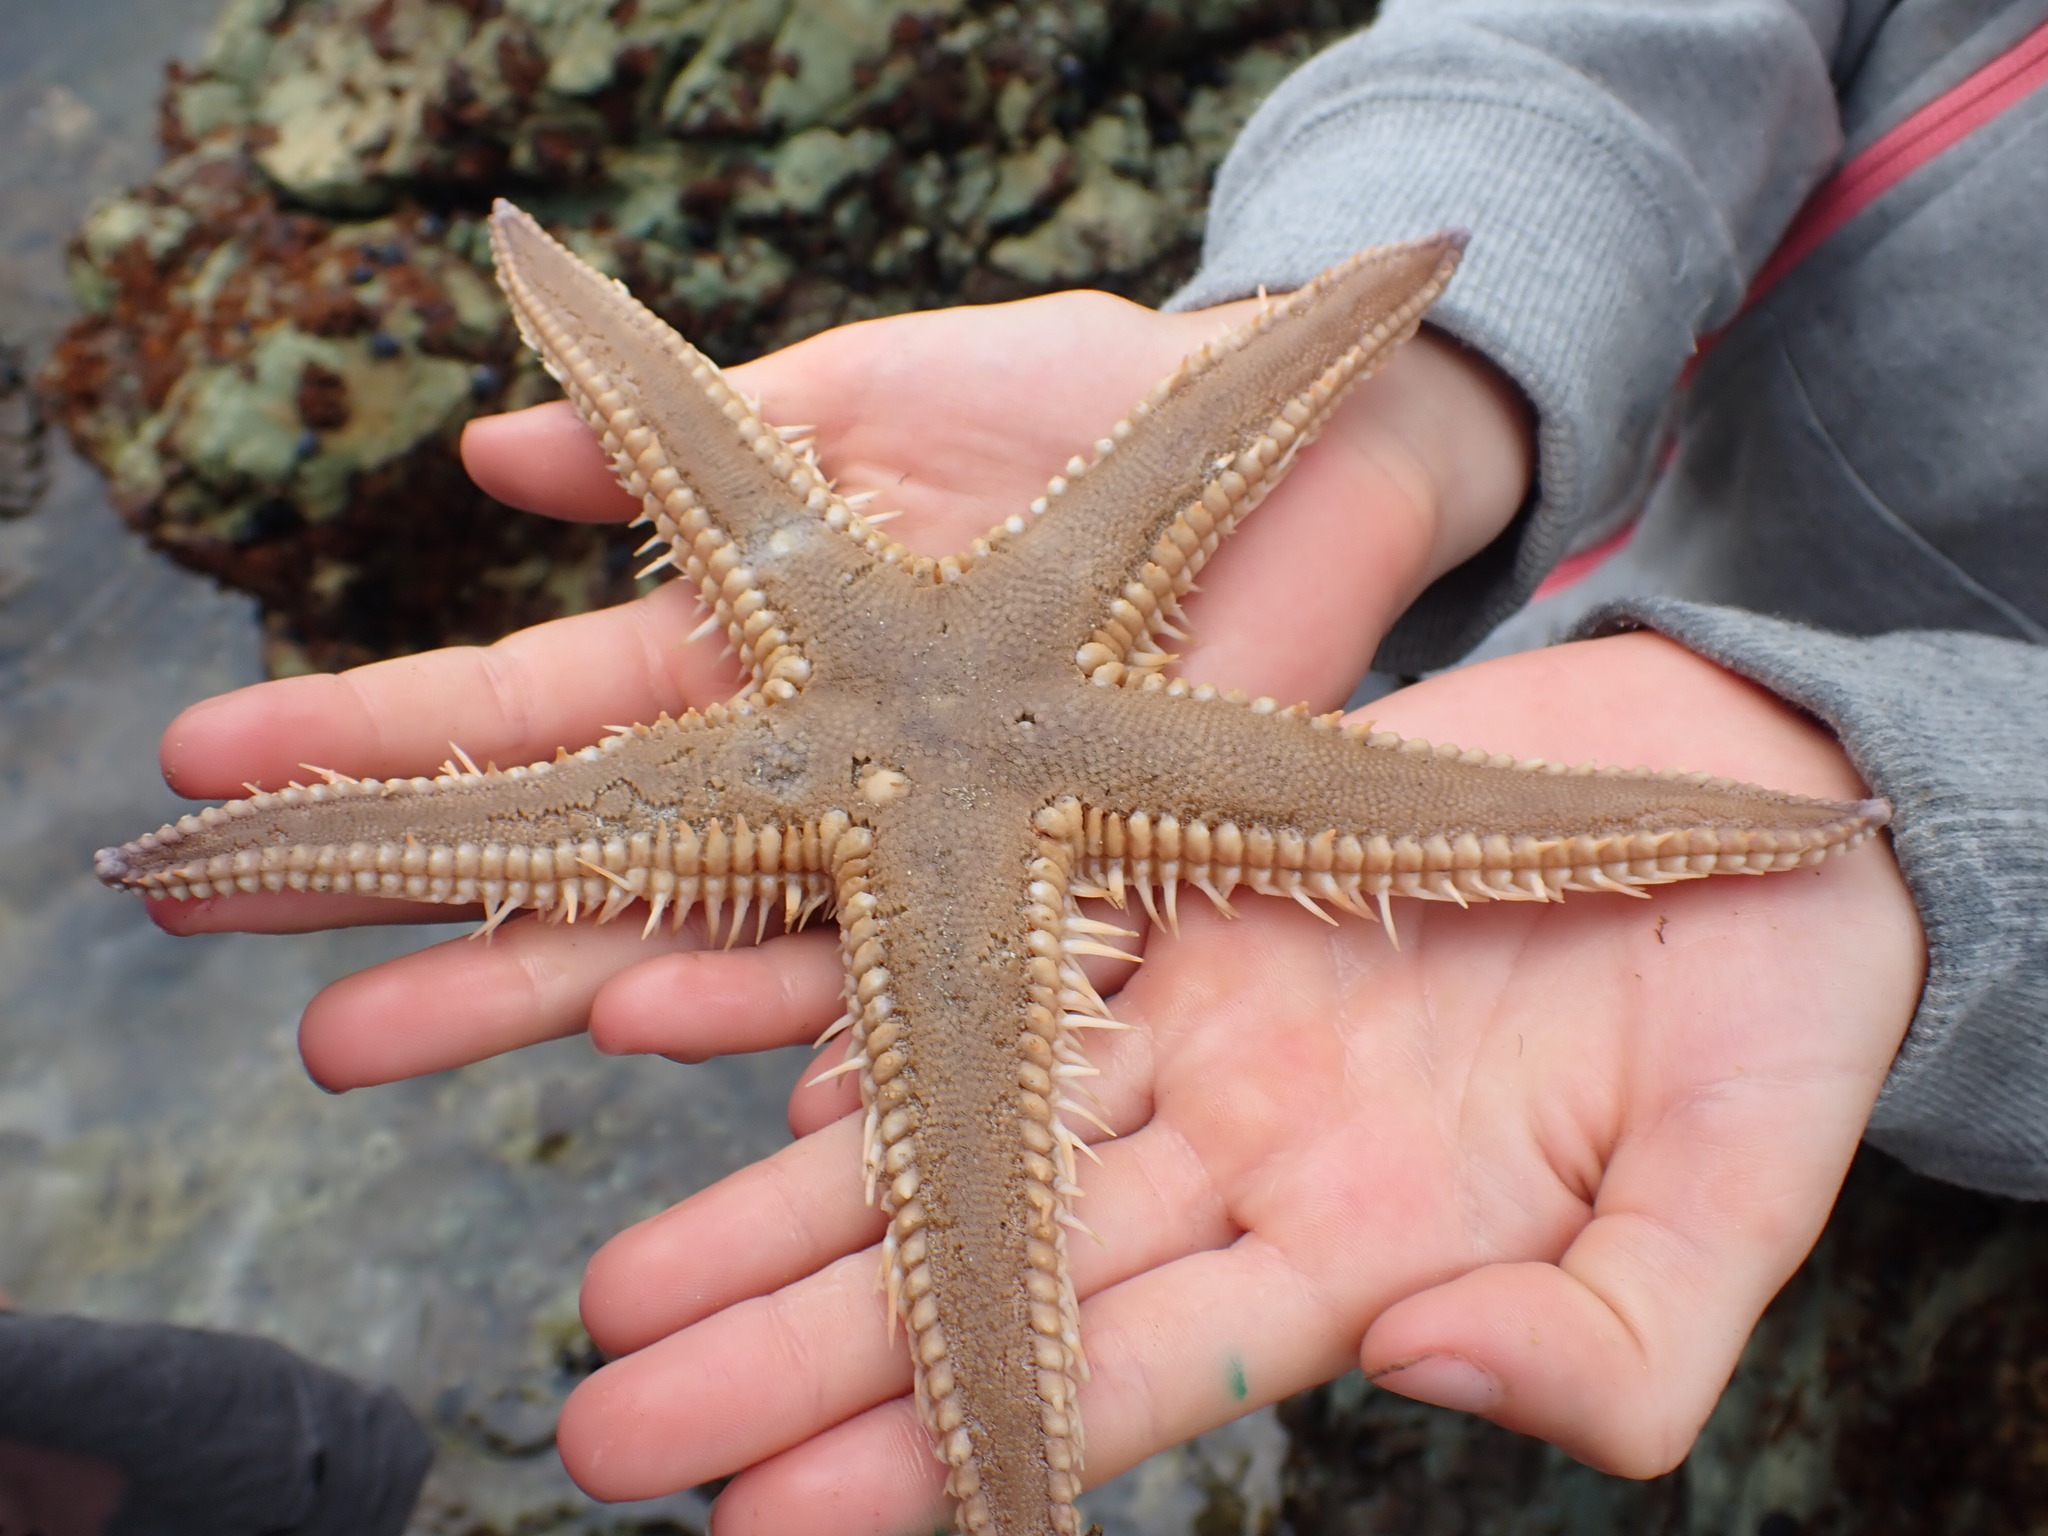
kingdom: Animalia
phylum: Echinodermata
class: Asteroidea
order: Paxillosida
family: Astropectinidae
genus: Astropecten
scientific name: Astropecten polyacanthus
